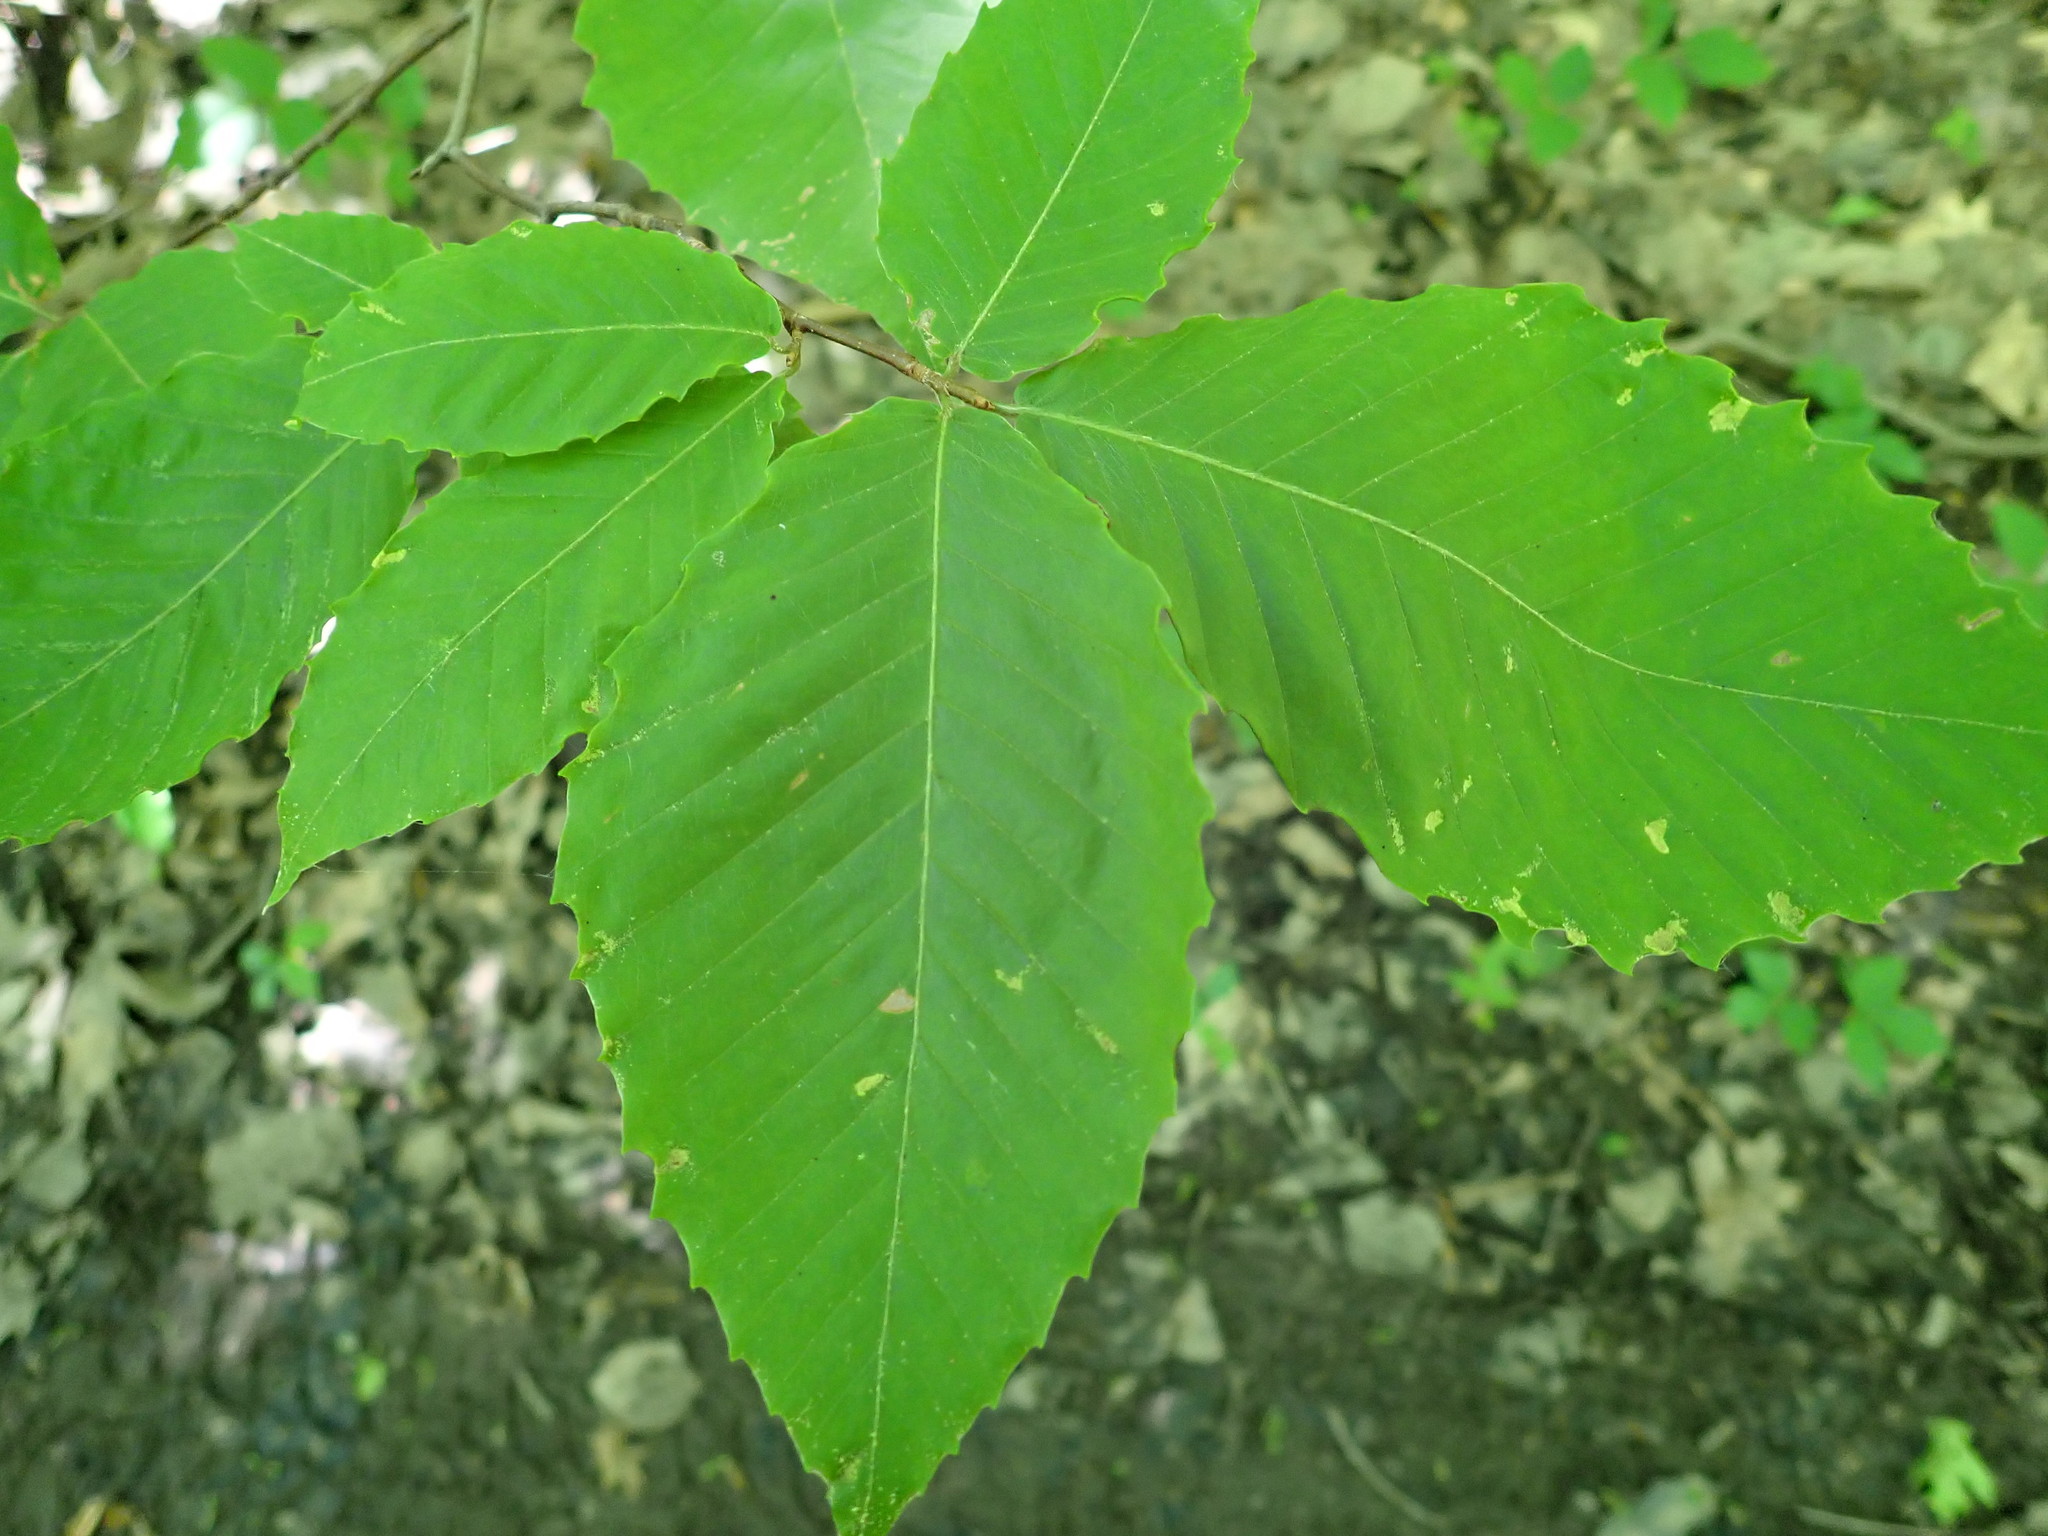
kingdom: Plantae
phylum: Tracheophyta
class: Magnoliopsida
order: Fagales
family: Fagaceae
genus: Fagus
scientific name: Fagus grandifolia
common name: American beech
